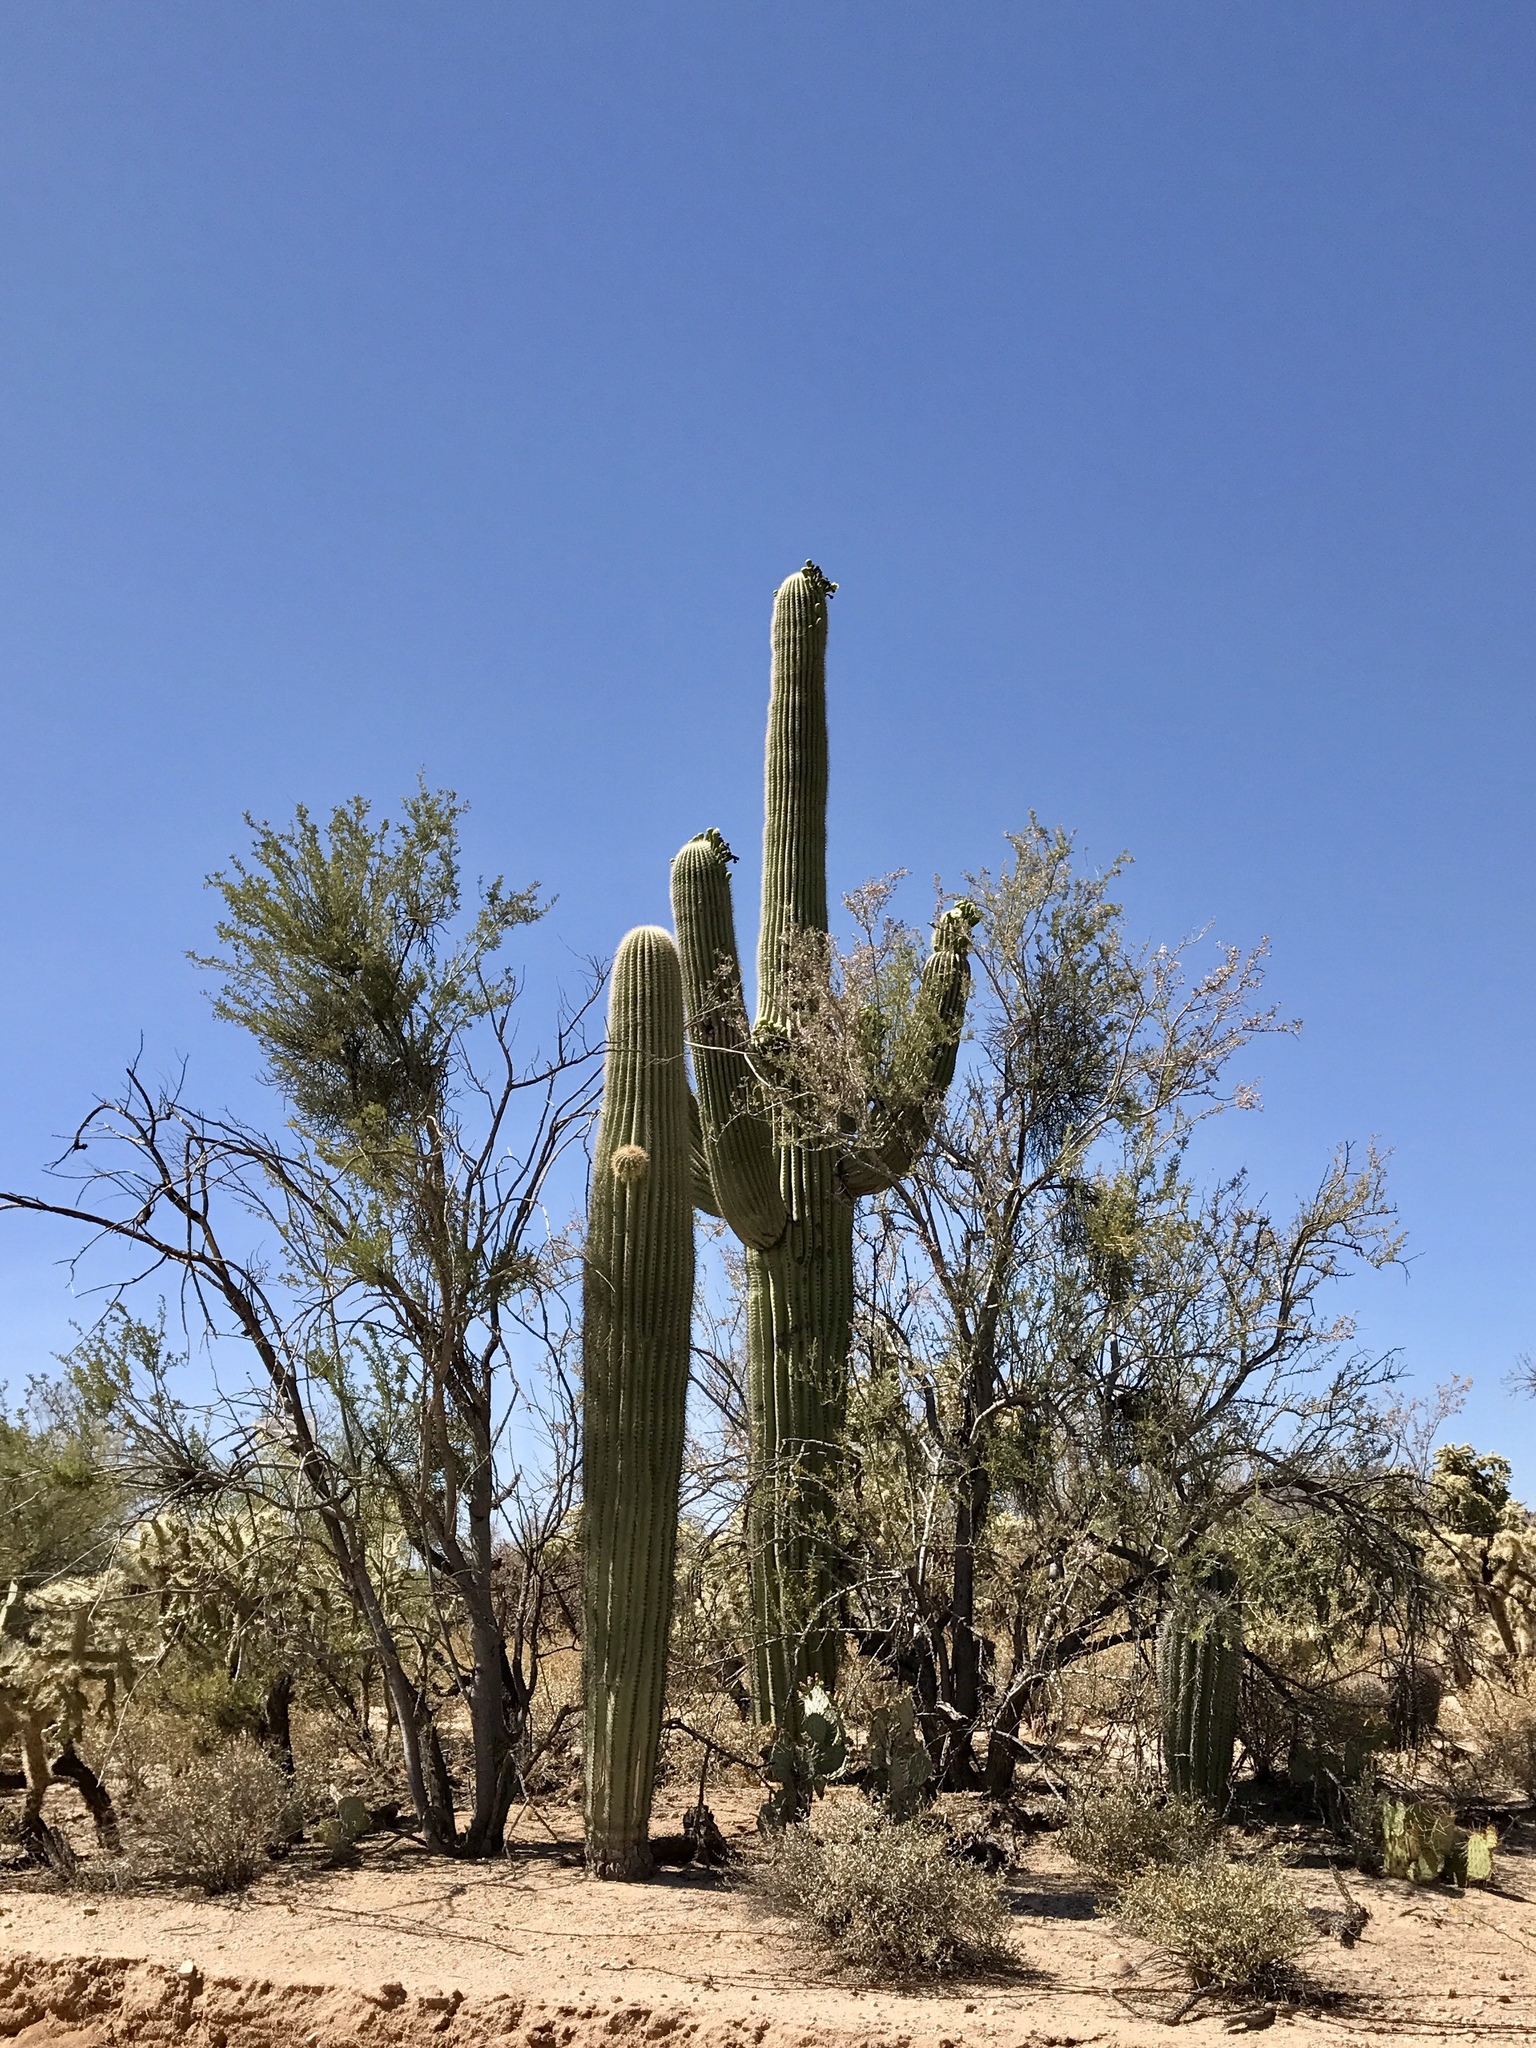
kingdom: Plantae
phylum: Tracheophyta
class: Magnoliopsida
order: Caryophyllales
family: Cactaceae
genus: Carnegiea
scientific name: Carnegiea gigantea
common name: Saguaro
